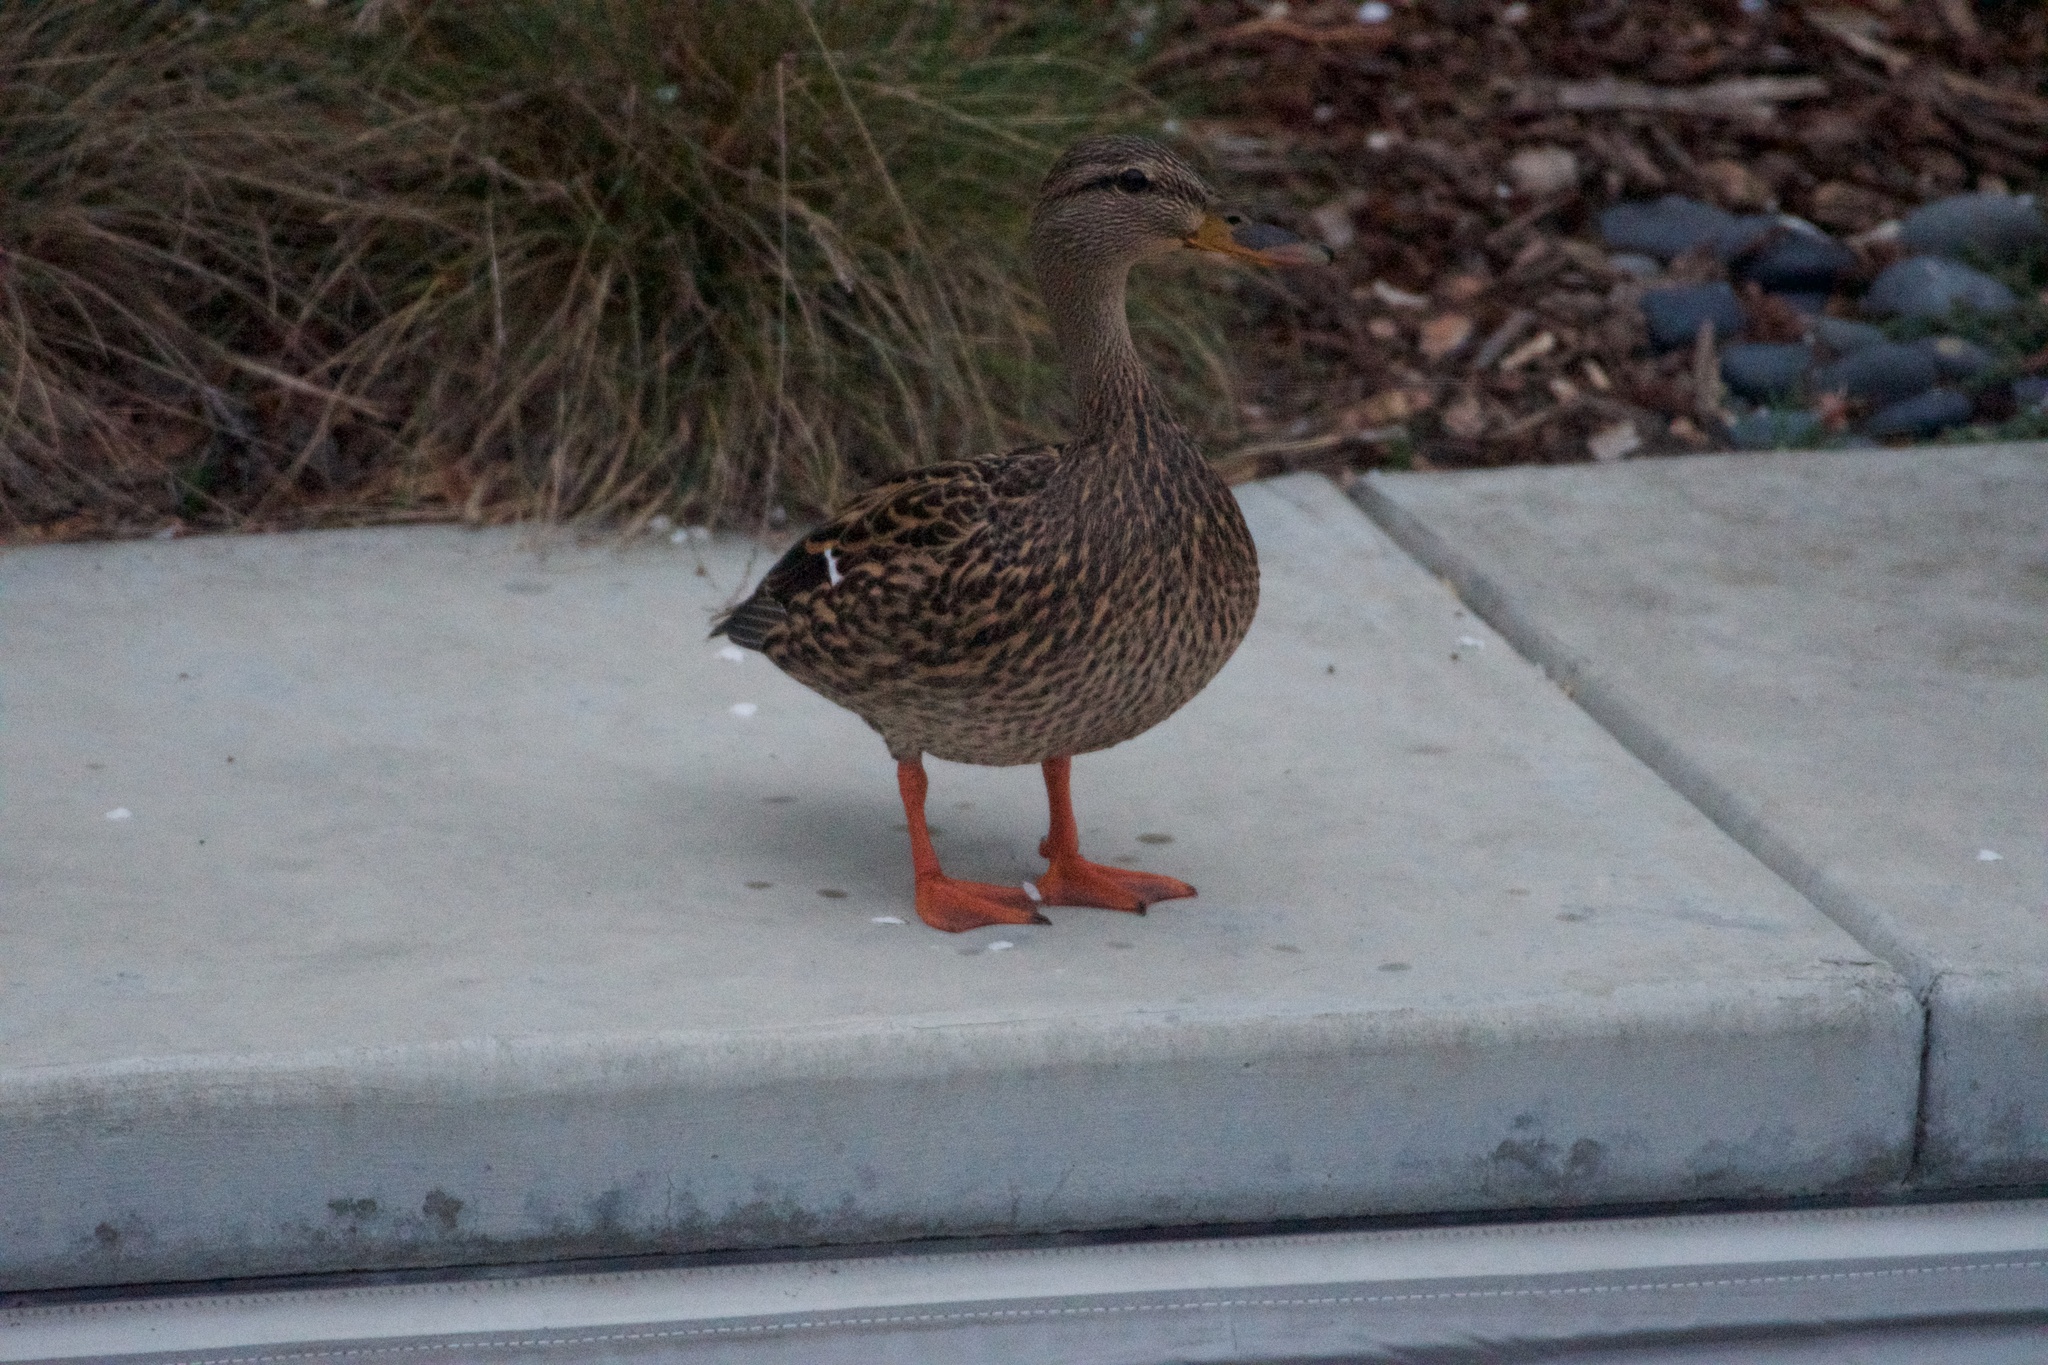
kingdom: Animalia
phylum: Chordata
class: Aves
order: Anseriformes
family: Anatidae
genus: Anas
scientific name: Anas platyrhynchos
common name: Mallard
